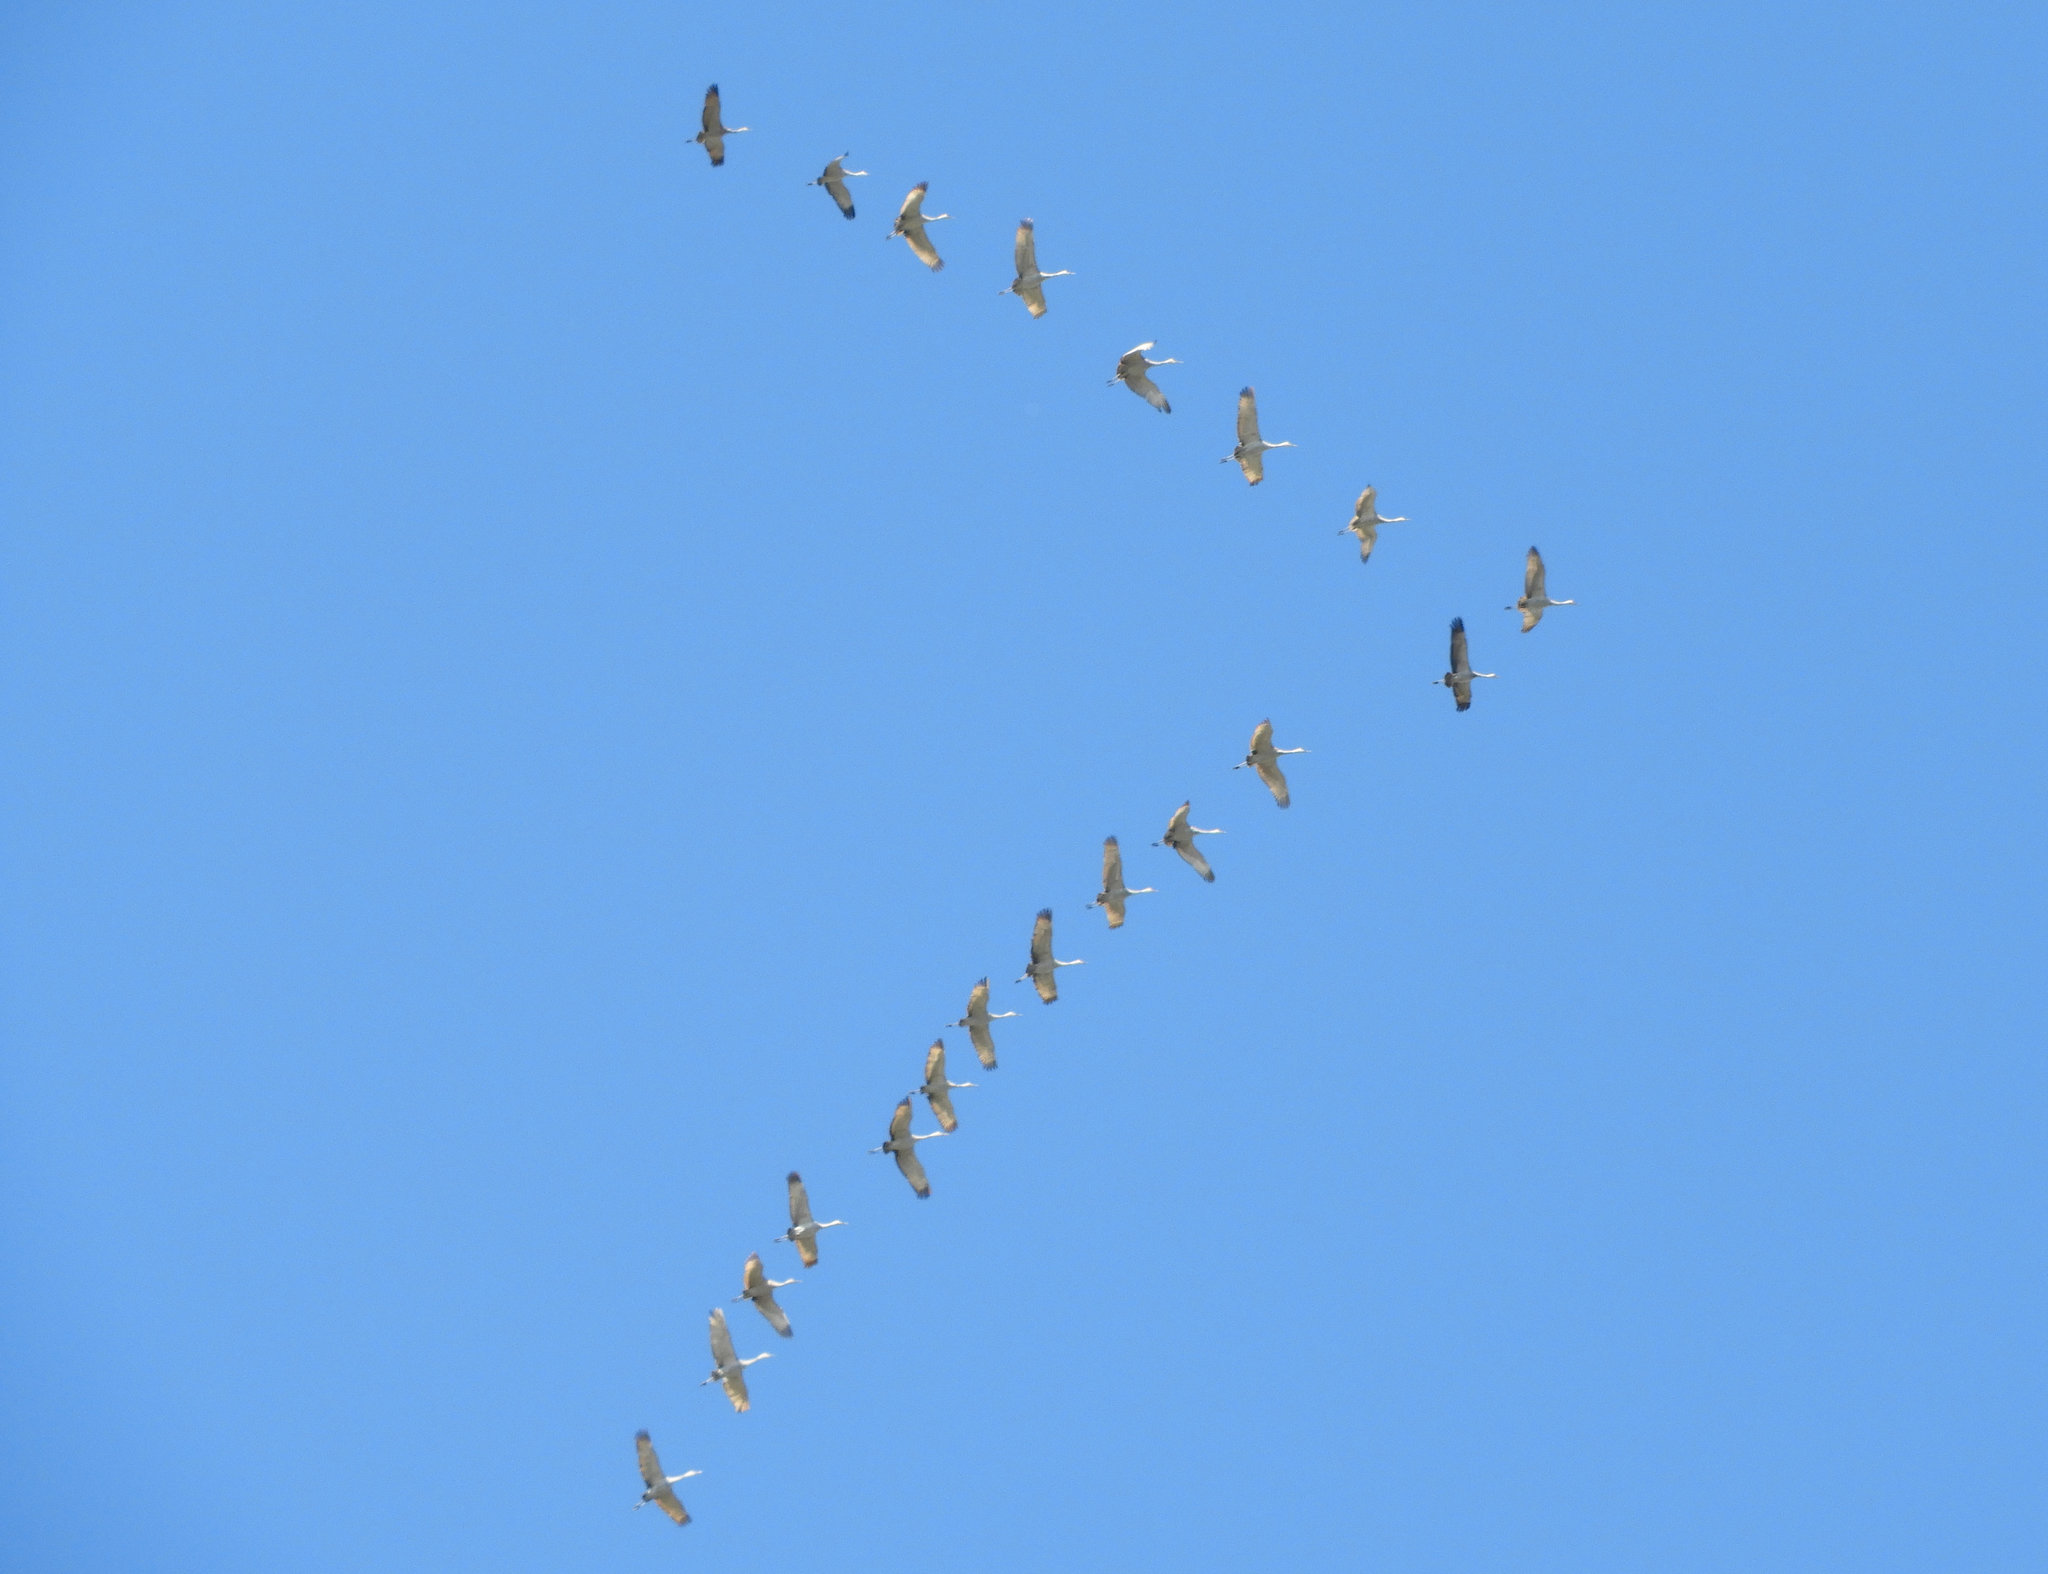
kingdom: Animalia
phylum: Chordata
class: Aves
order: Gruiformes
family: Gruidae
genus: Grus
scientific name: Grus canadensis
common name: Sandhill crane
